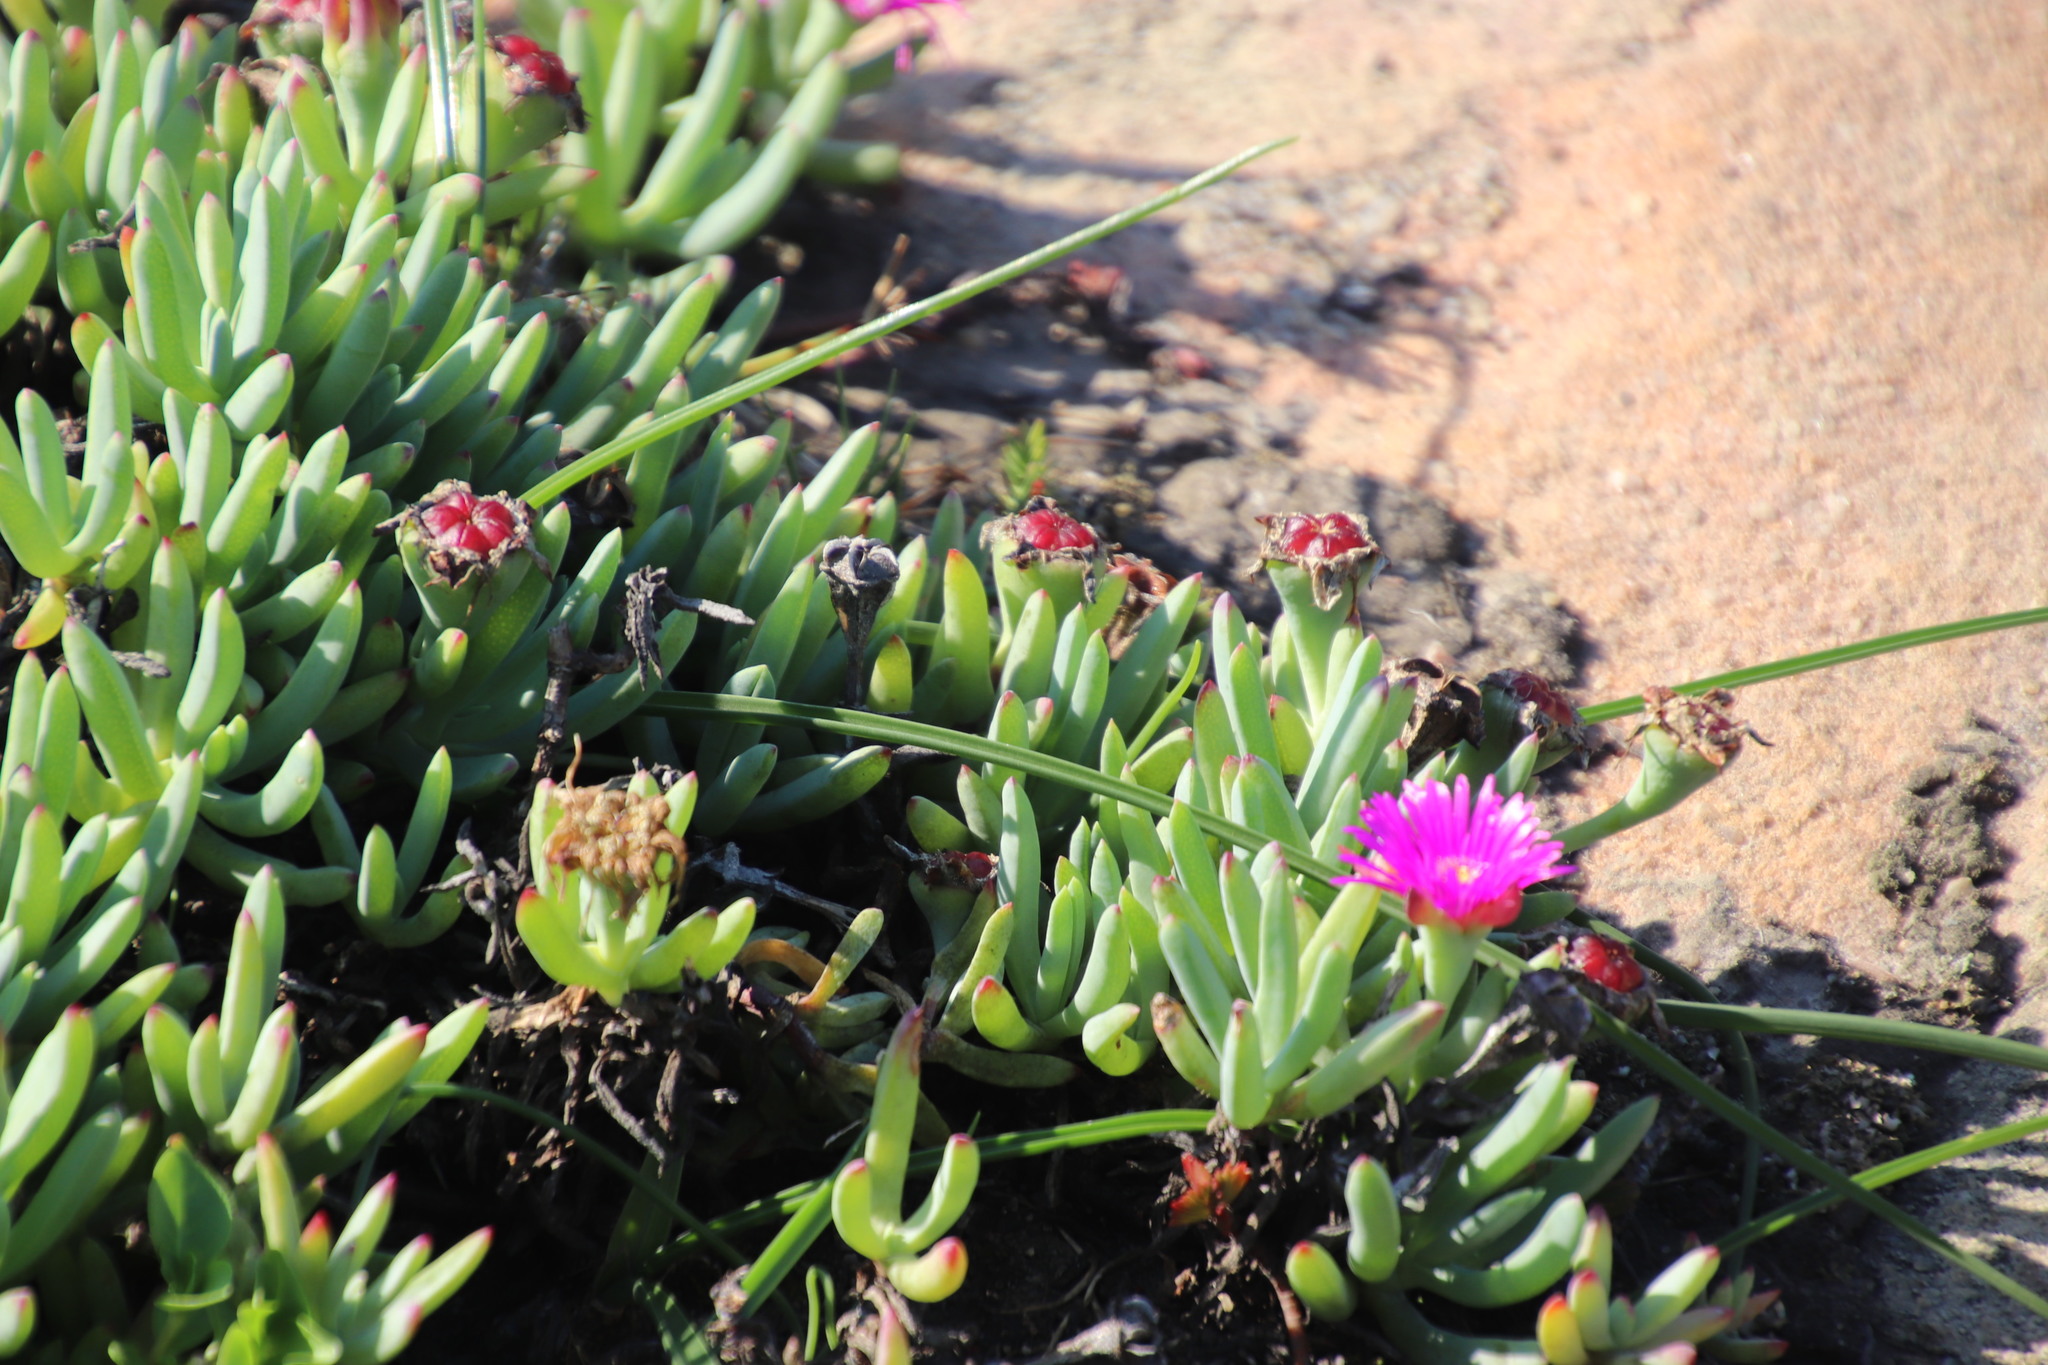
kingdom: Plantae
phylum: Tracheophyta
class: Magnoliopsida
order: Caryophyllales
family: Aizoaceae
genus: Lampranthus
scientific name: Lampranthus fugitans
